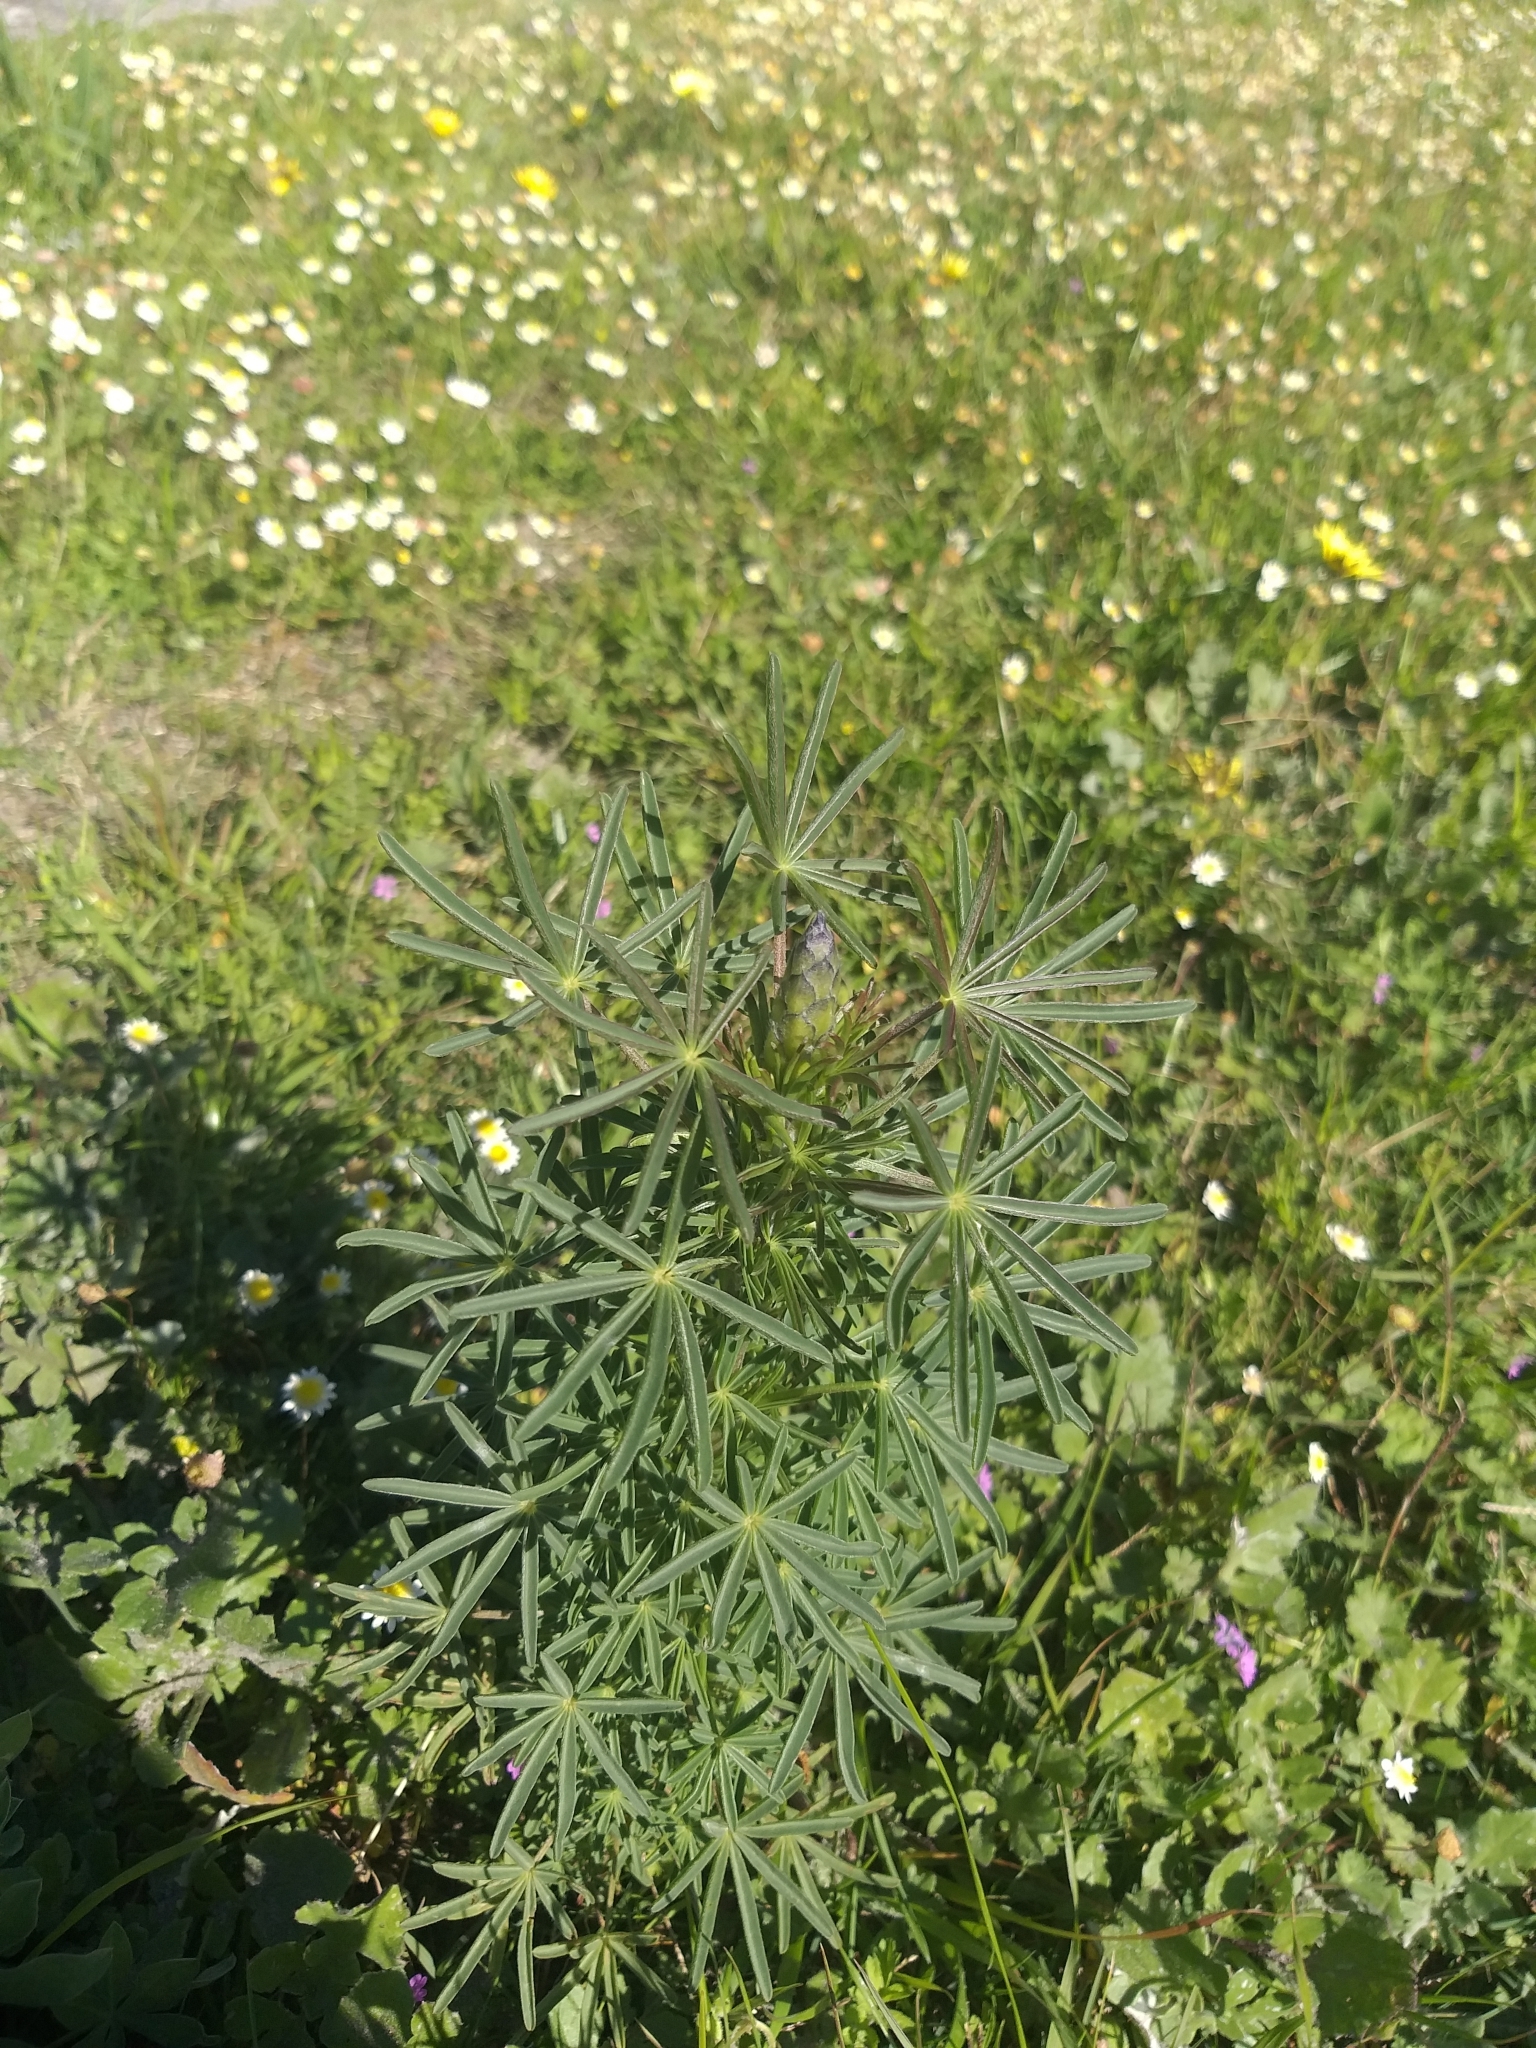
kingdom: Plantae
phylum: Tracheophyta
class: Magnoliopsida
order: Fabales
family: Fabaceae
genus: Lupinus
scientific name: Lupinus angustifolius
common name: Narrow-leaved lupin
